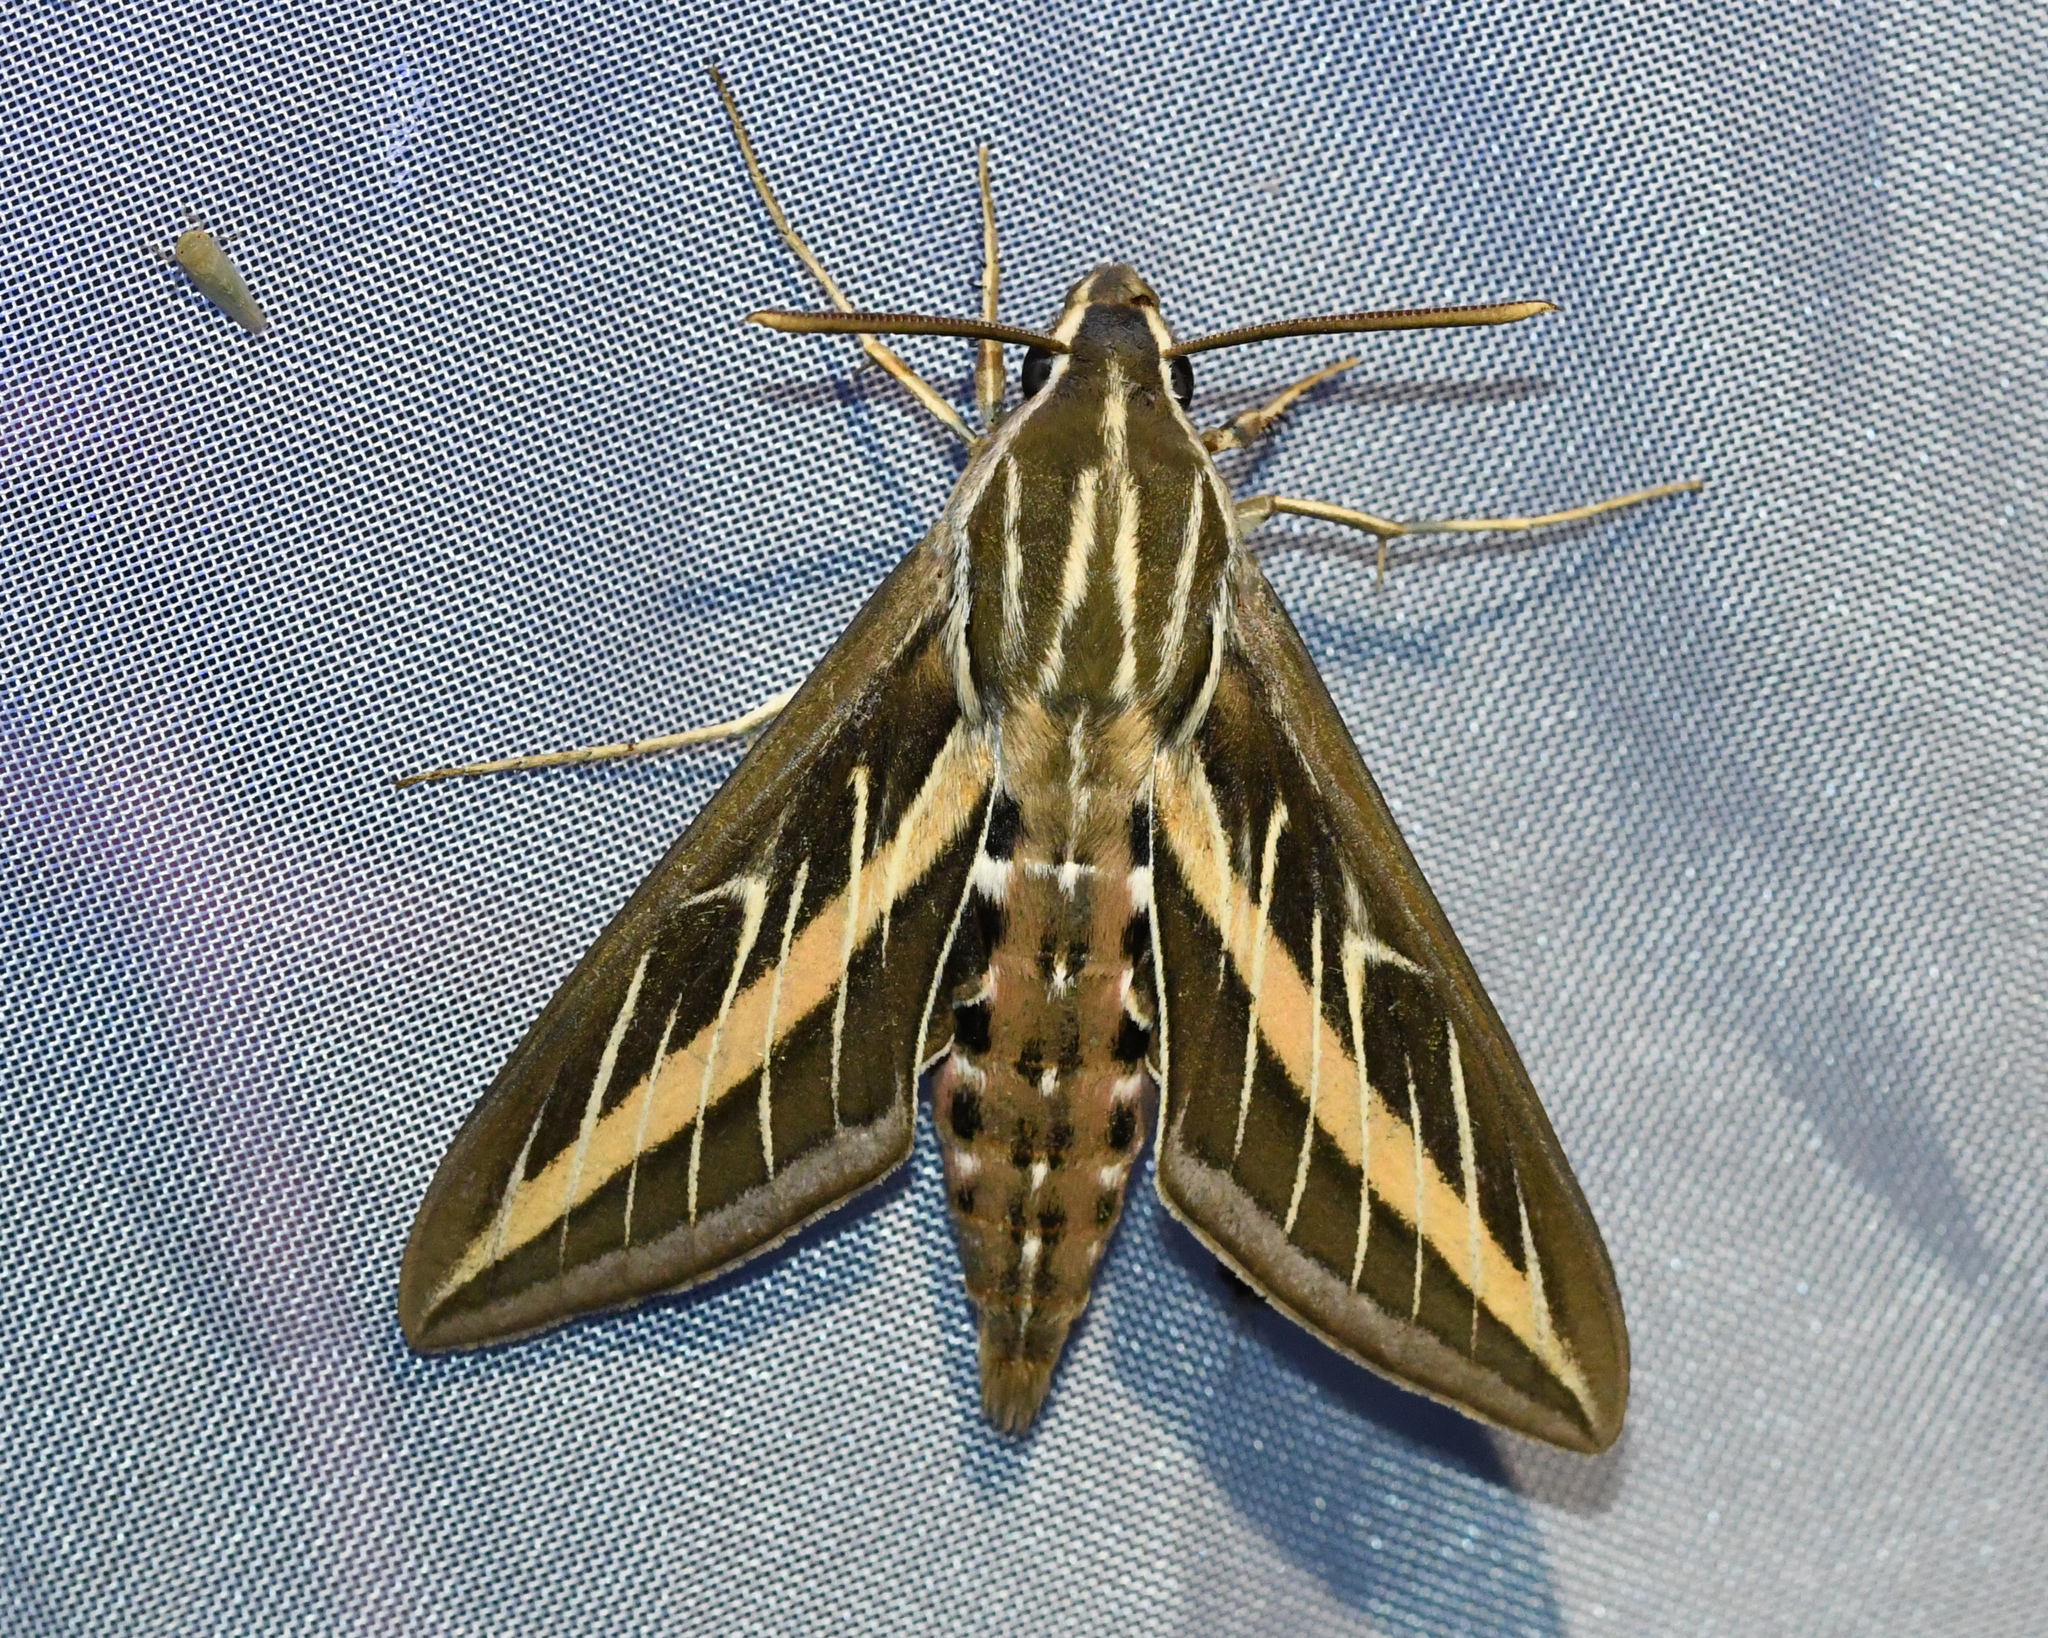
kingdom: Animalia
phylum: Arthropoda
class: Insecta
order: Lepidoptera
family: Sphingidae
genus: Hyles
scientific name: Hyles lineata
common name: White-lined sphinx
